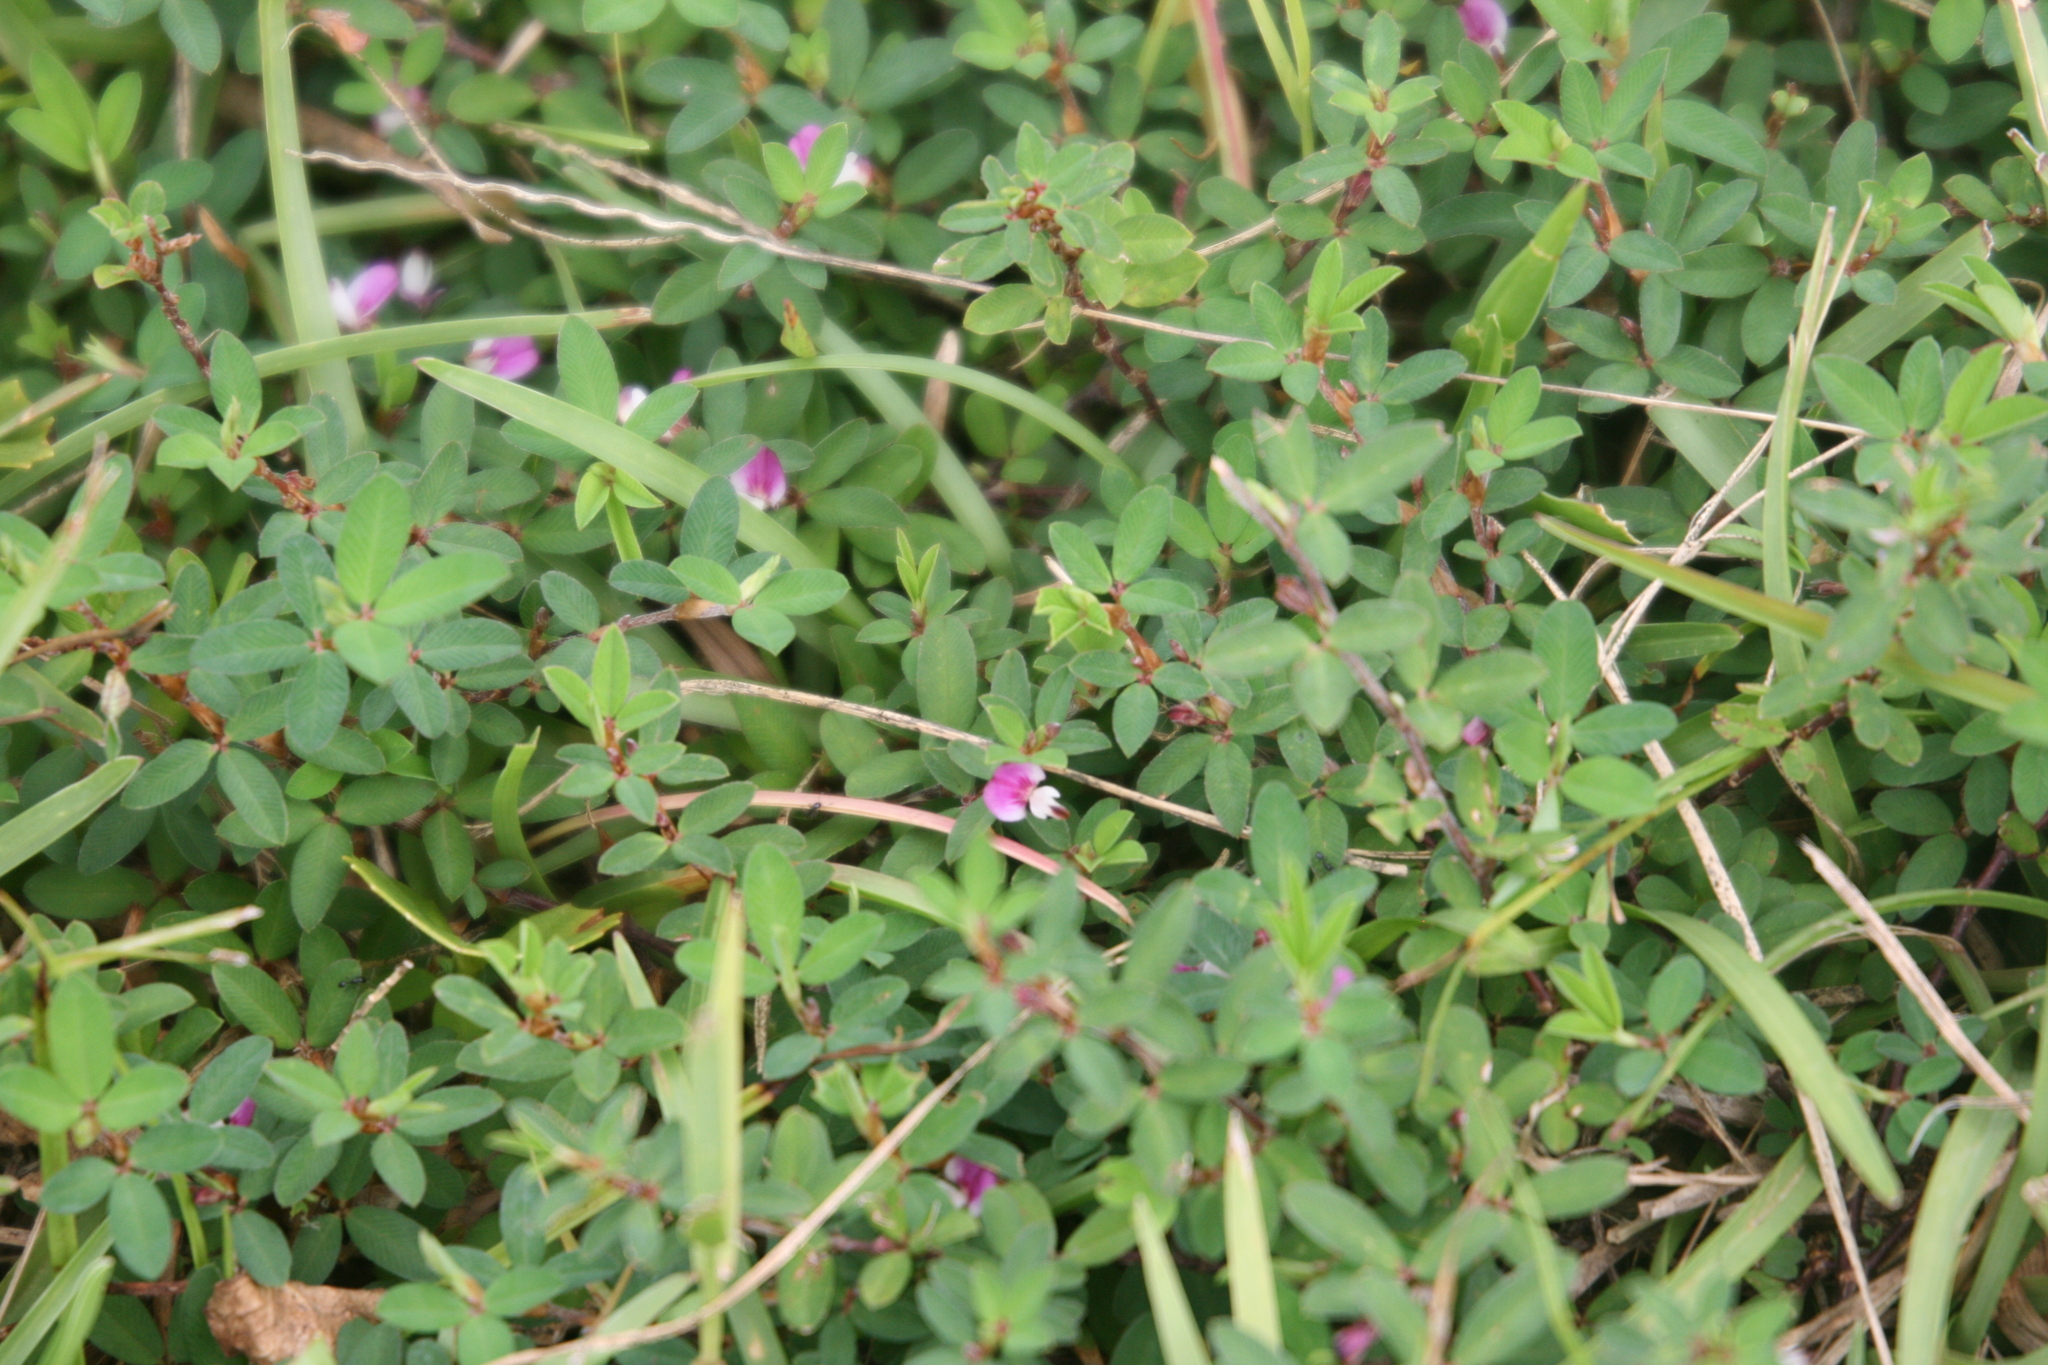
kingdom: Plantae
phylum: Tracheophyta
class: Magnoliopsida
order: Fabales
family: Fabaceae
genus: Kummerowia
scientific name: Kummerowia striata
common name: Japanese clover
